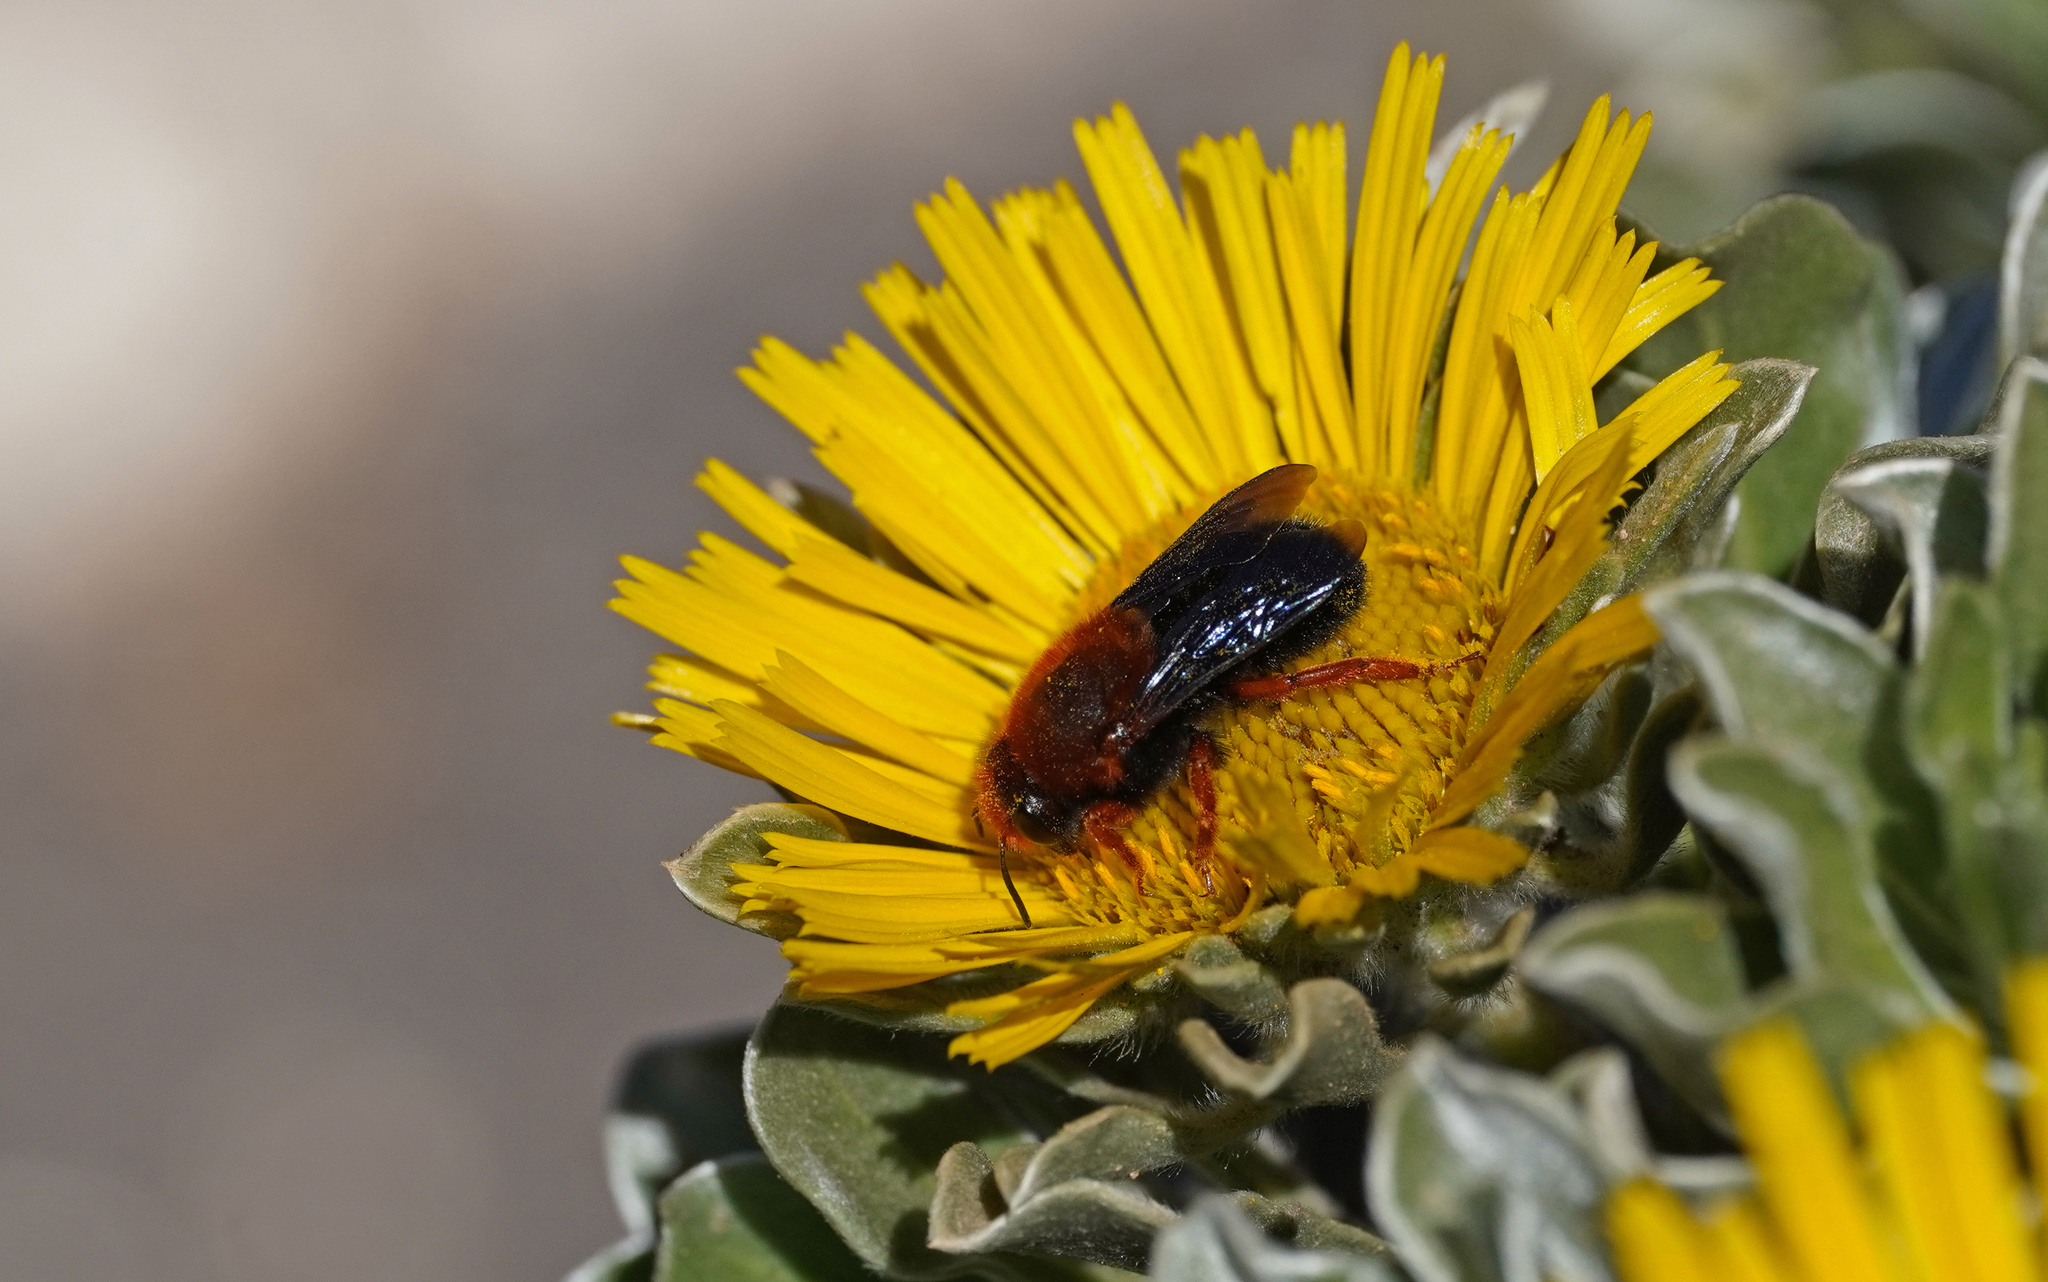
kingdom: Animalia
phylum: Arthropoda
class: Insecta
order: Hymenoptera
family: Megachilidae
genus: Megachile
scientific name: Megachile sicula
